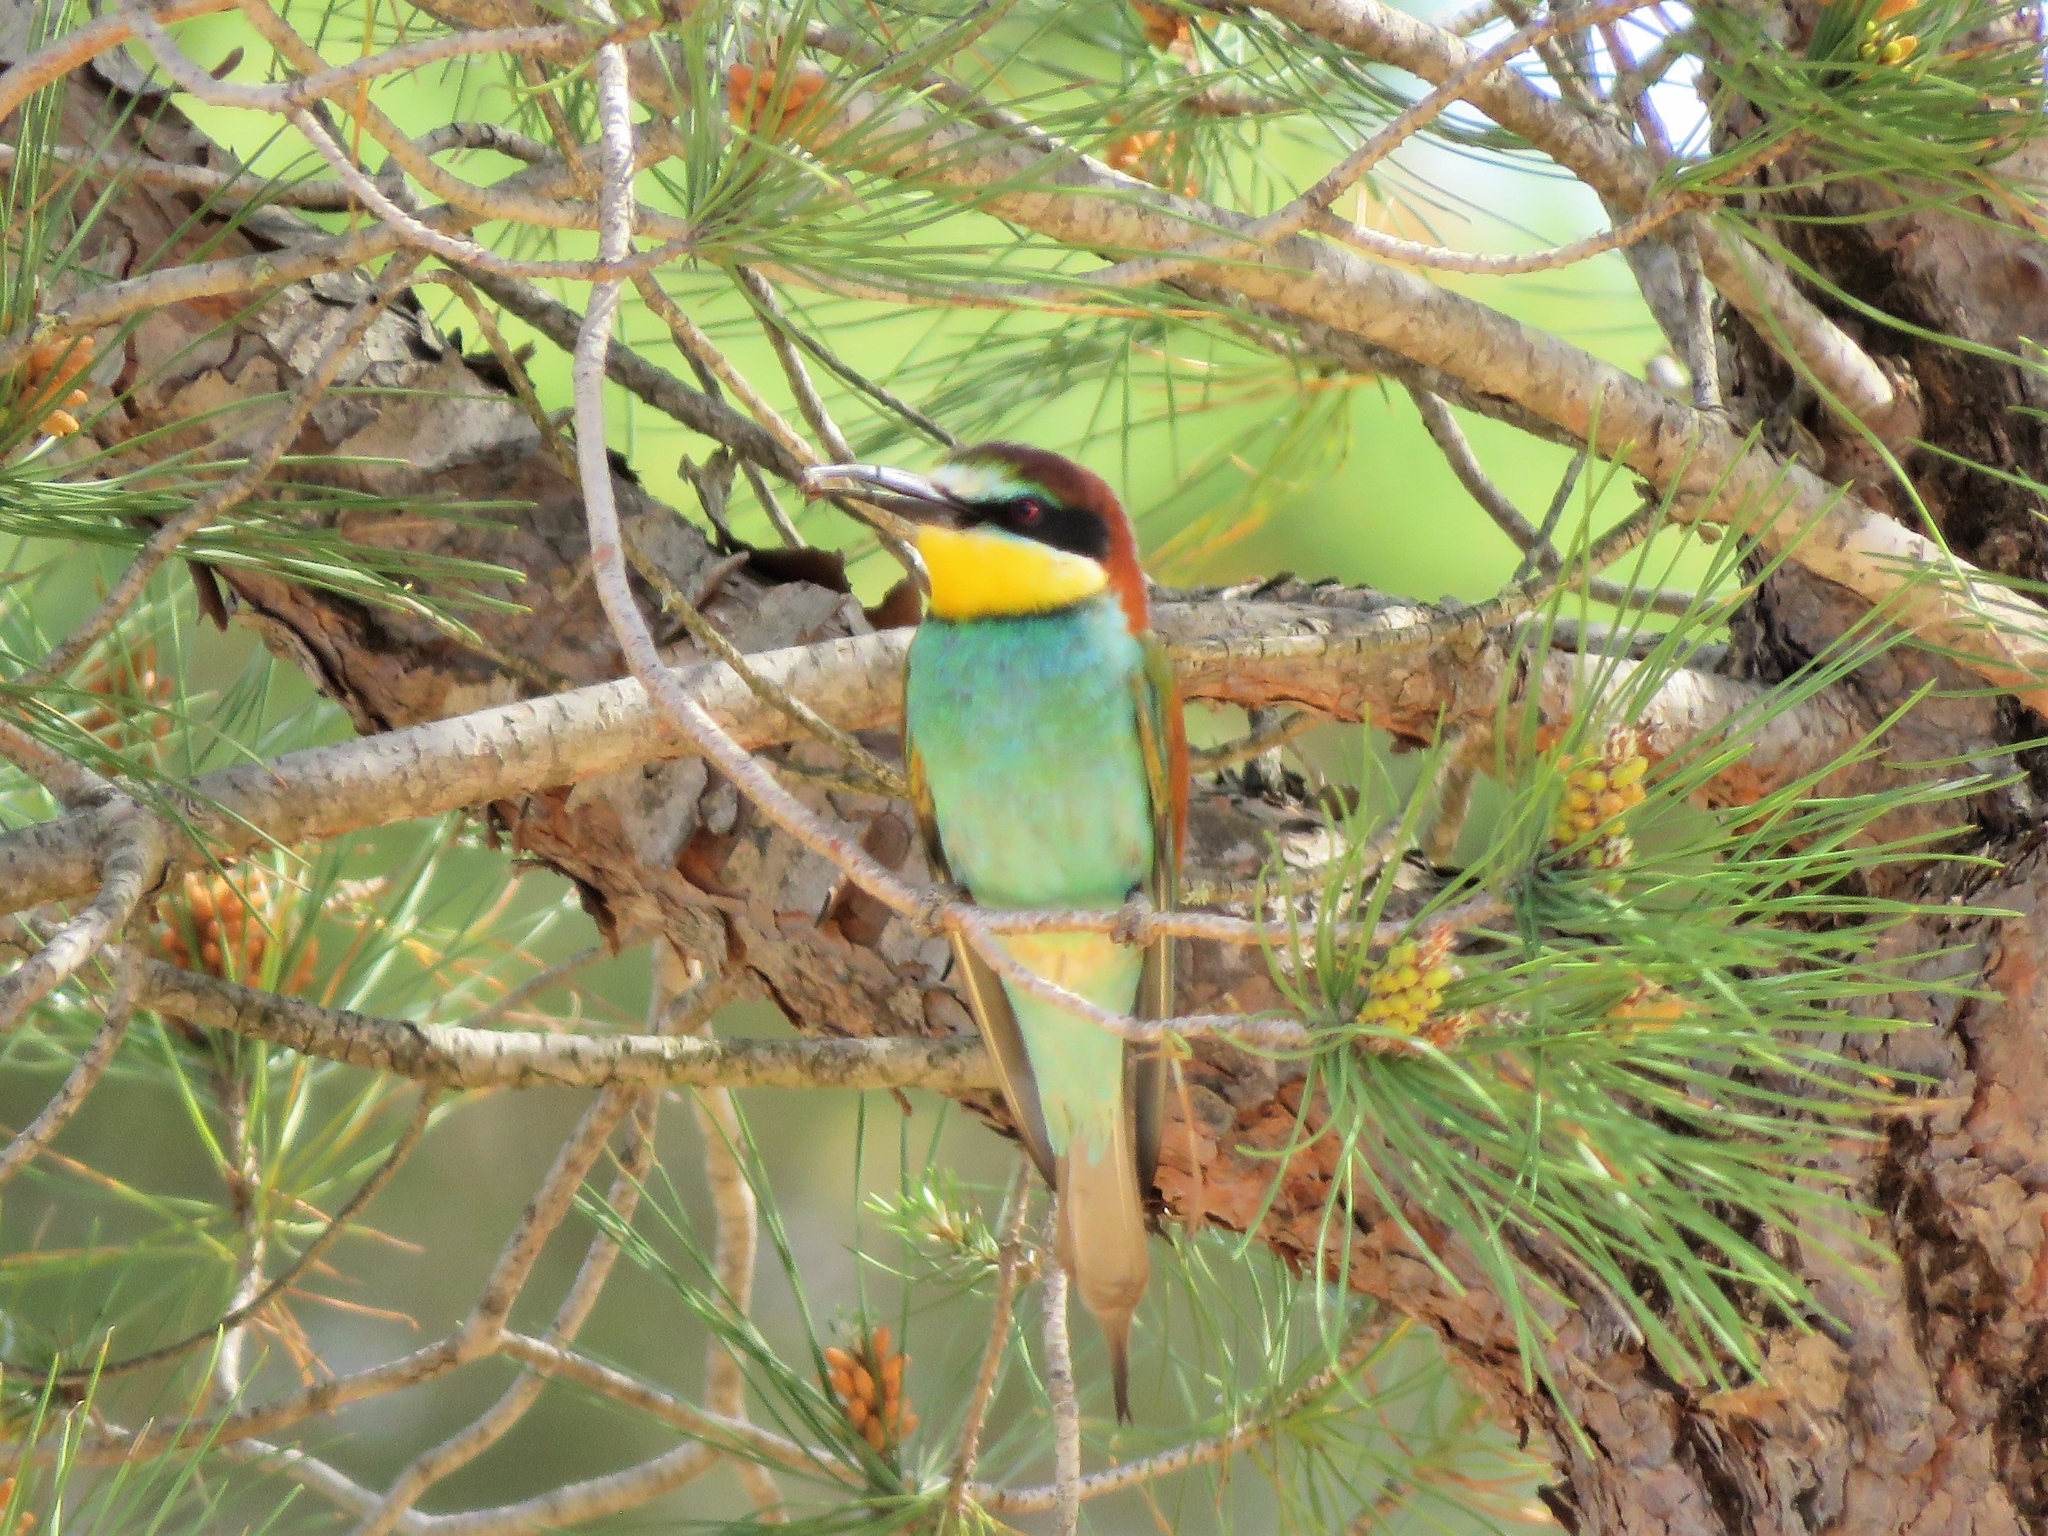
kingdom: Animalia
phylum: Chordata
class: Aves
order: Coraciiformes
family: Meropidae
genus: Merops
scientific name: Merops apiaster
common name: European bee-eater
